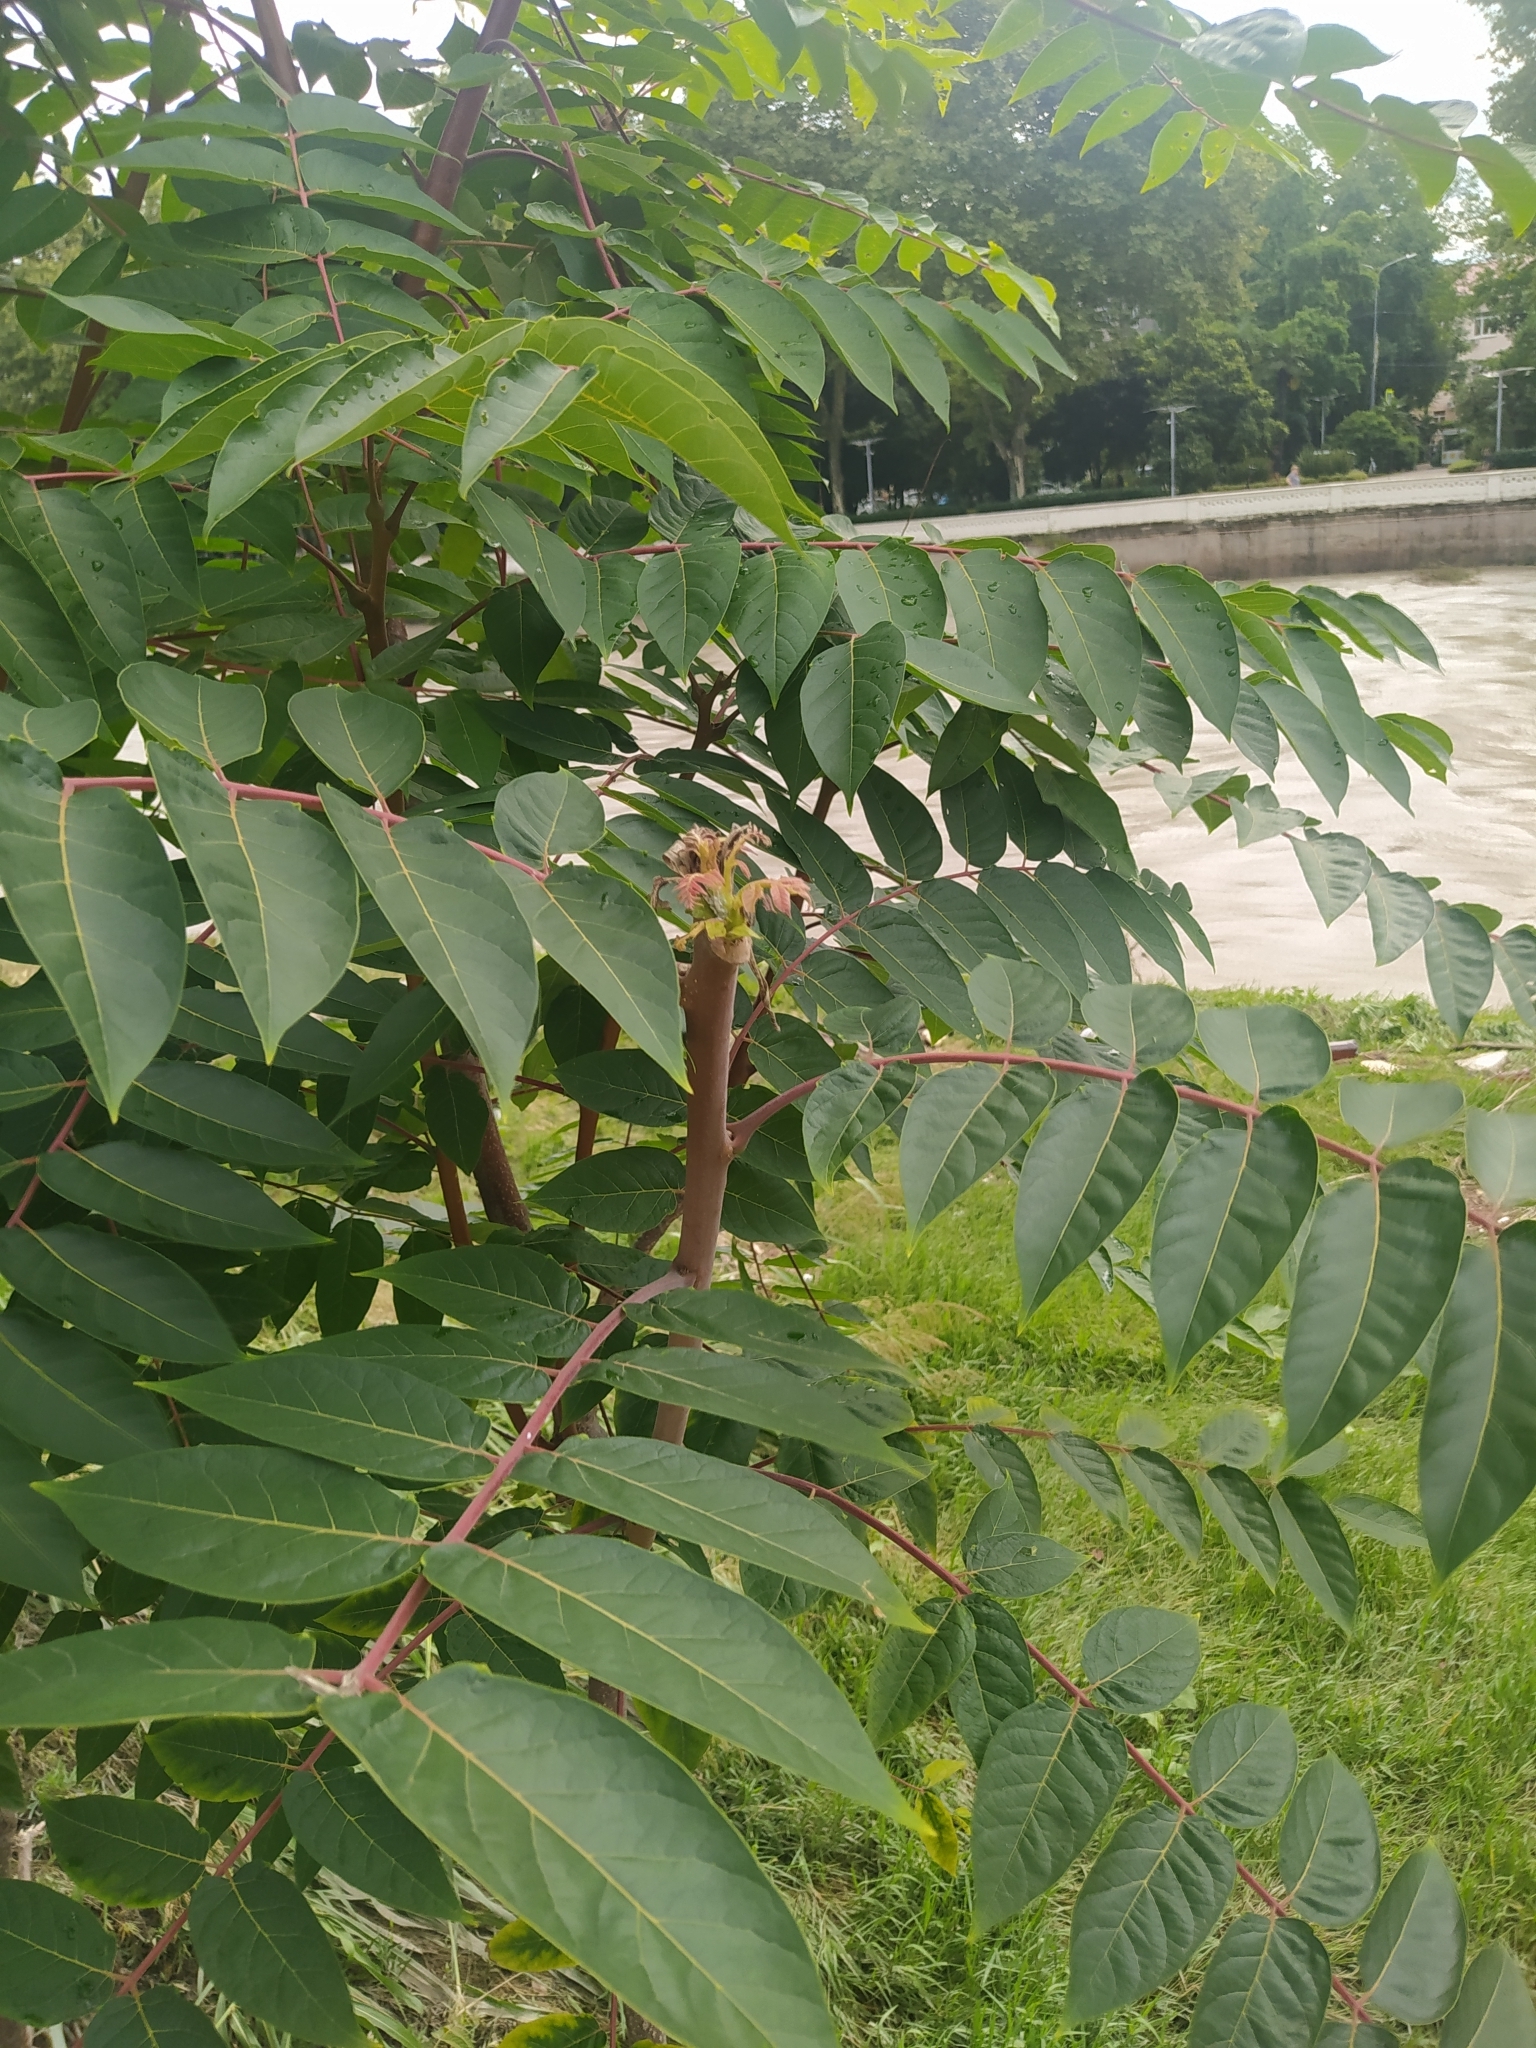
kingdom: Plantae
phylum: Tracheophyta
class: Magnoliopsida
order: Sapindales
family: Simaroubaceae
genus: Ailanthus
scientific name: Ailanthus altissima
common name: Tree-of-heaven
